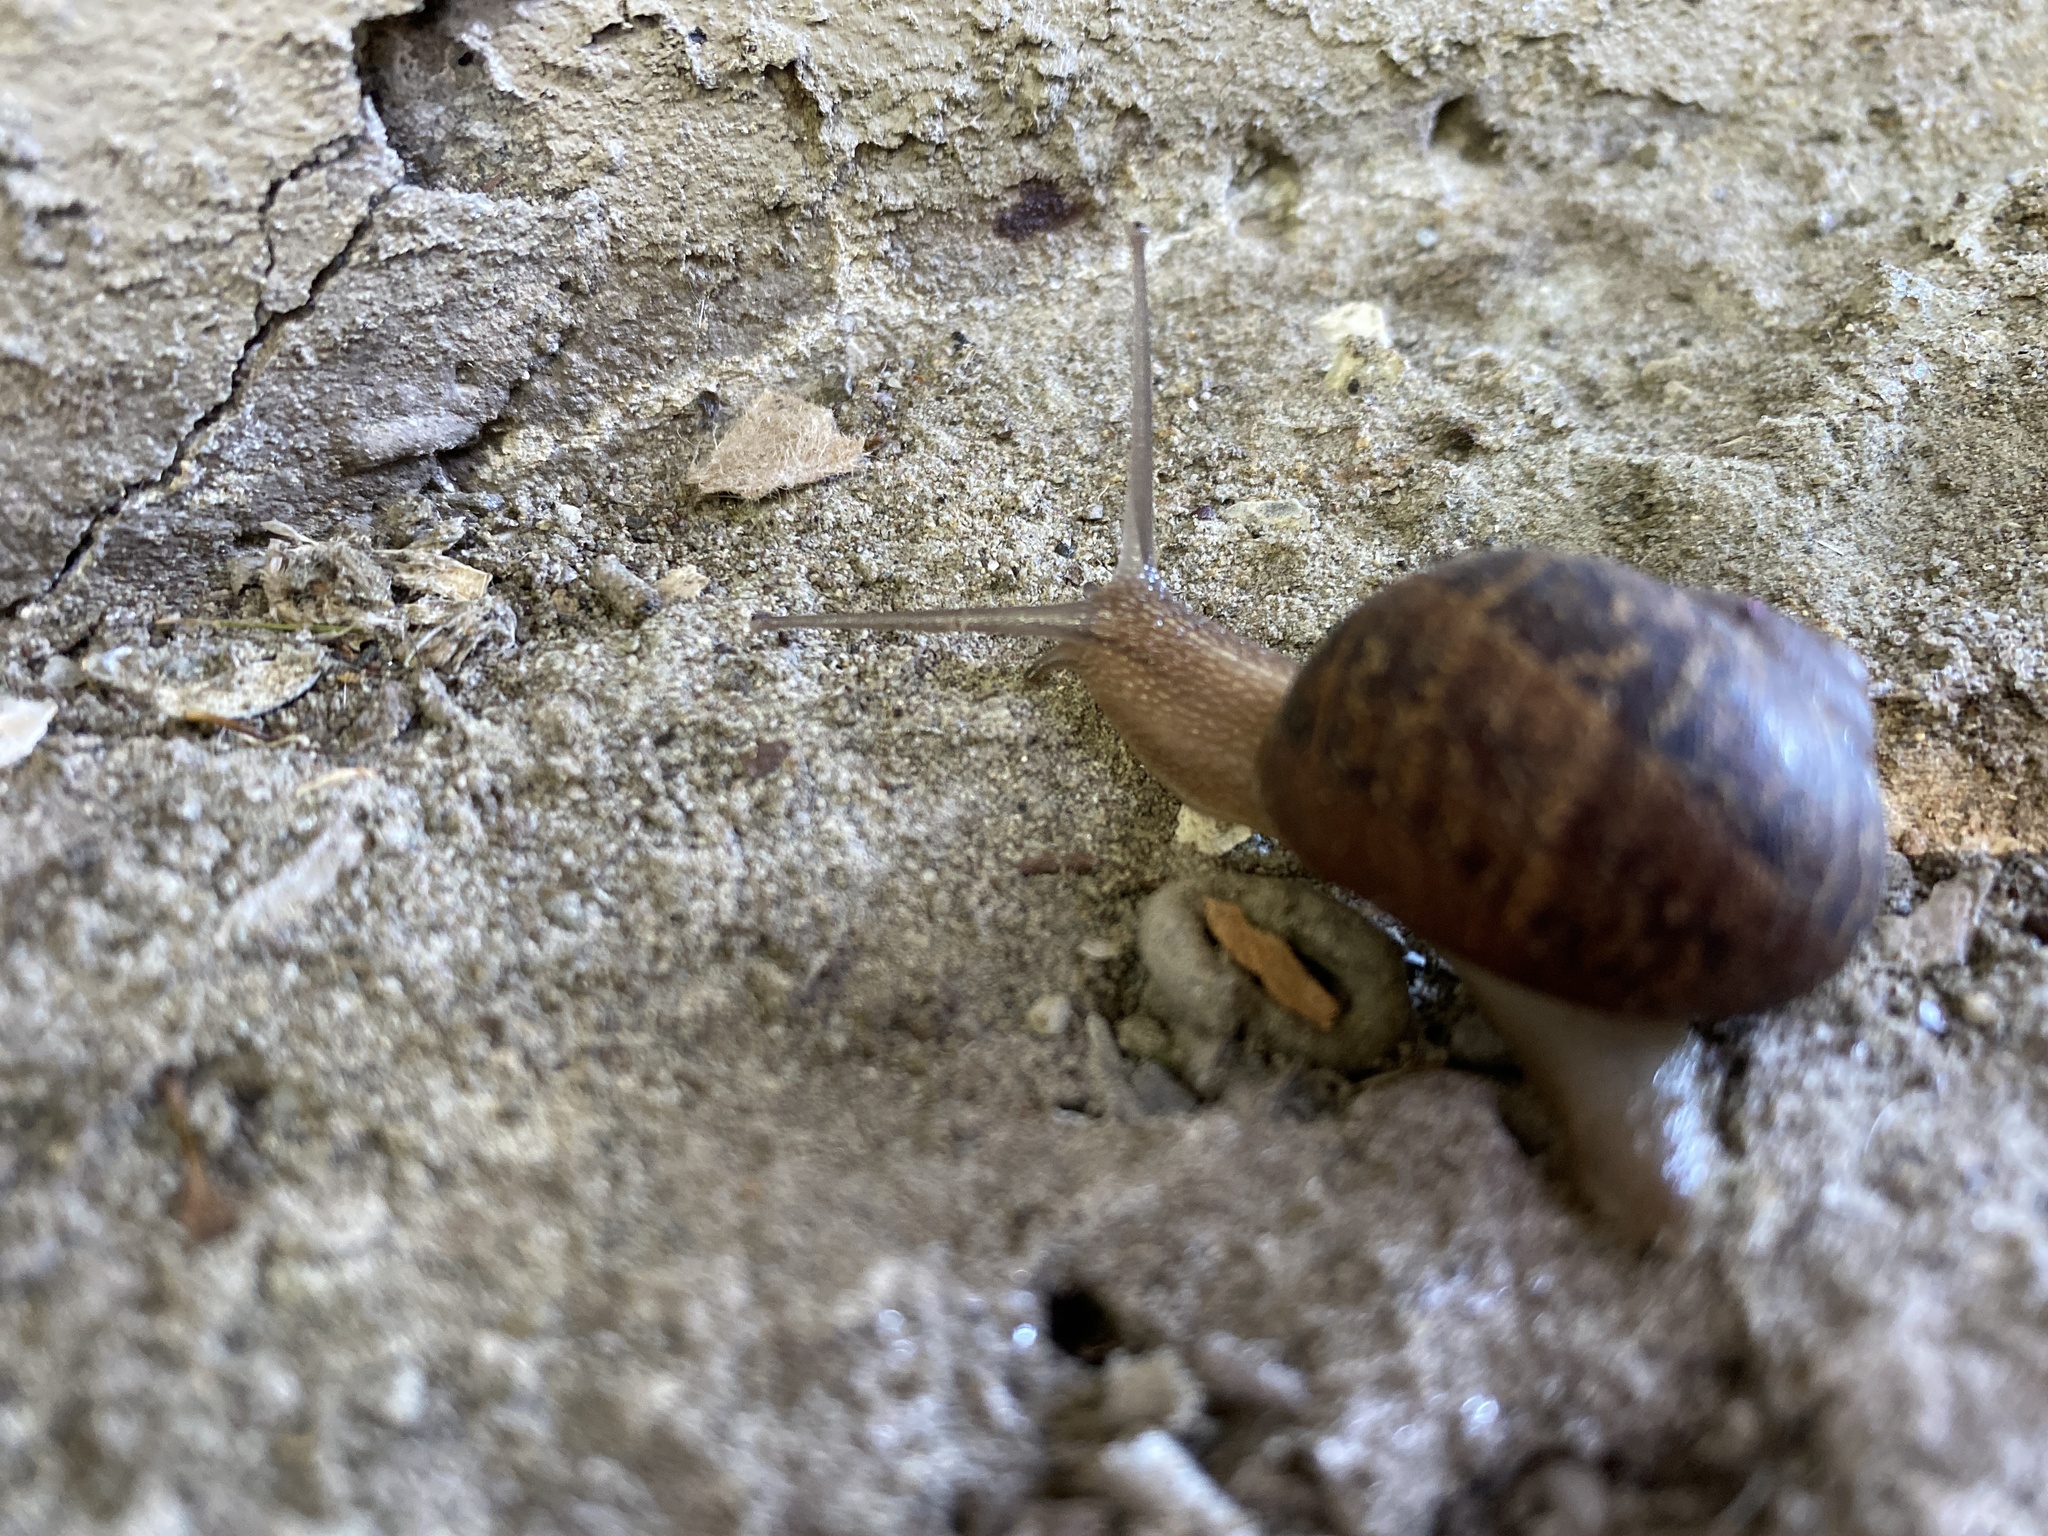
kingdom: Animalia
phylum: Mollusca
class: Gastropoda
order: Stylommatophora
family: Helicidae
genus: Cornu
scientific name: Cornu aspersum
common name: Brown garden snail
